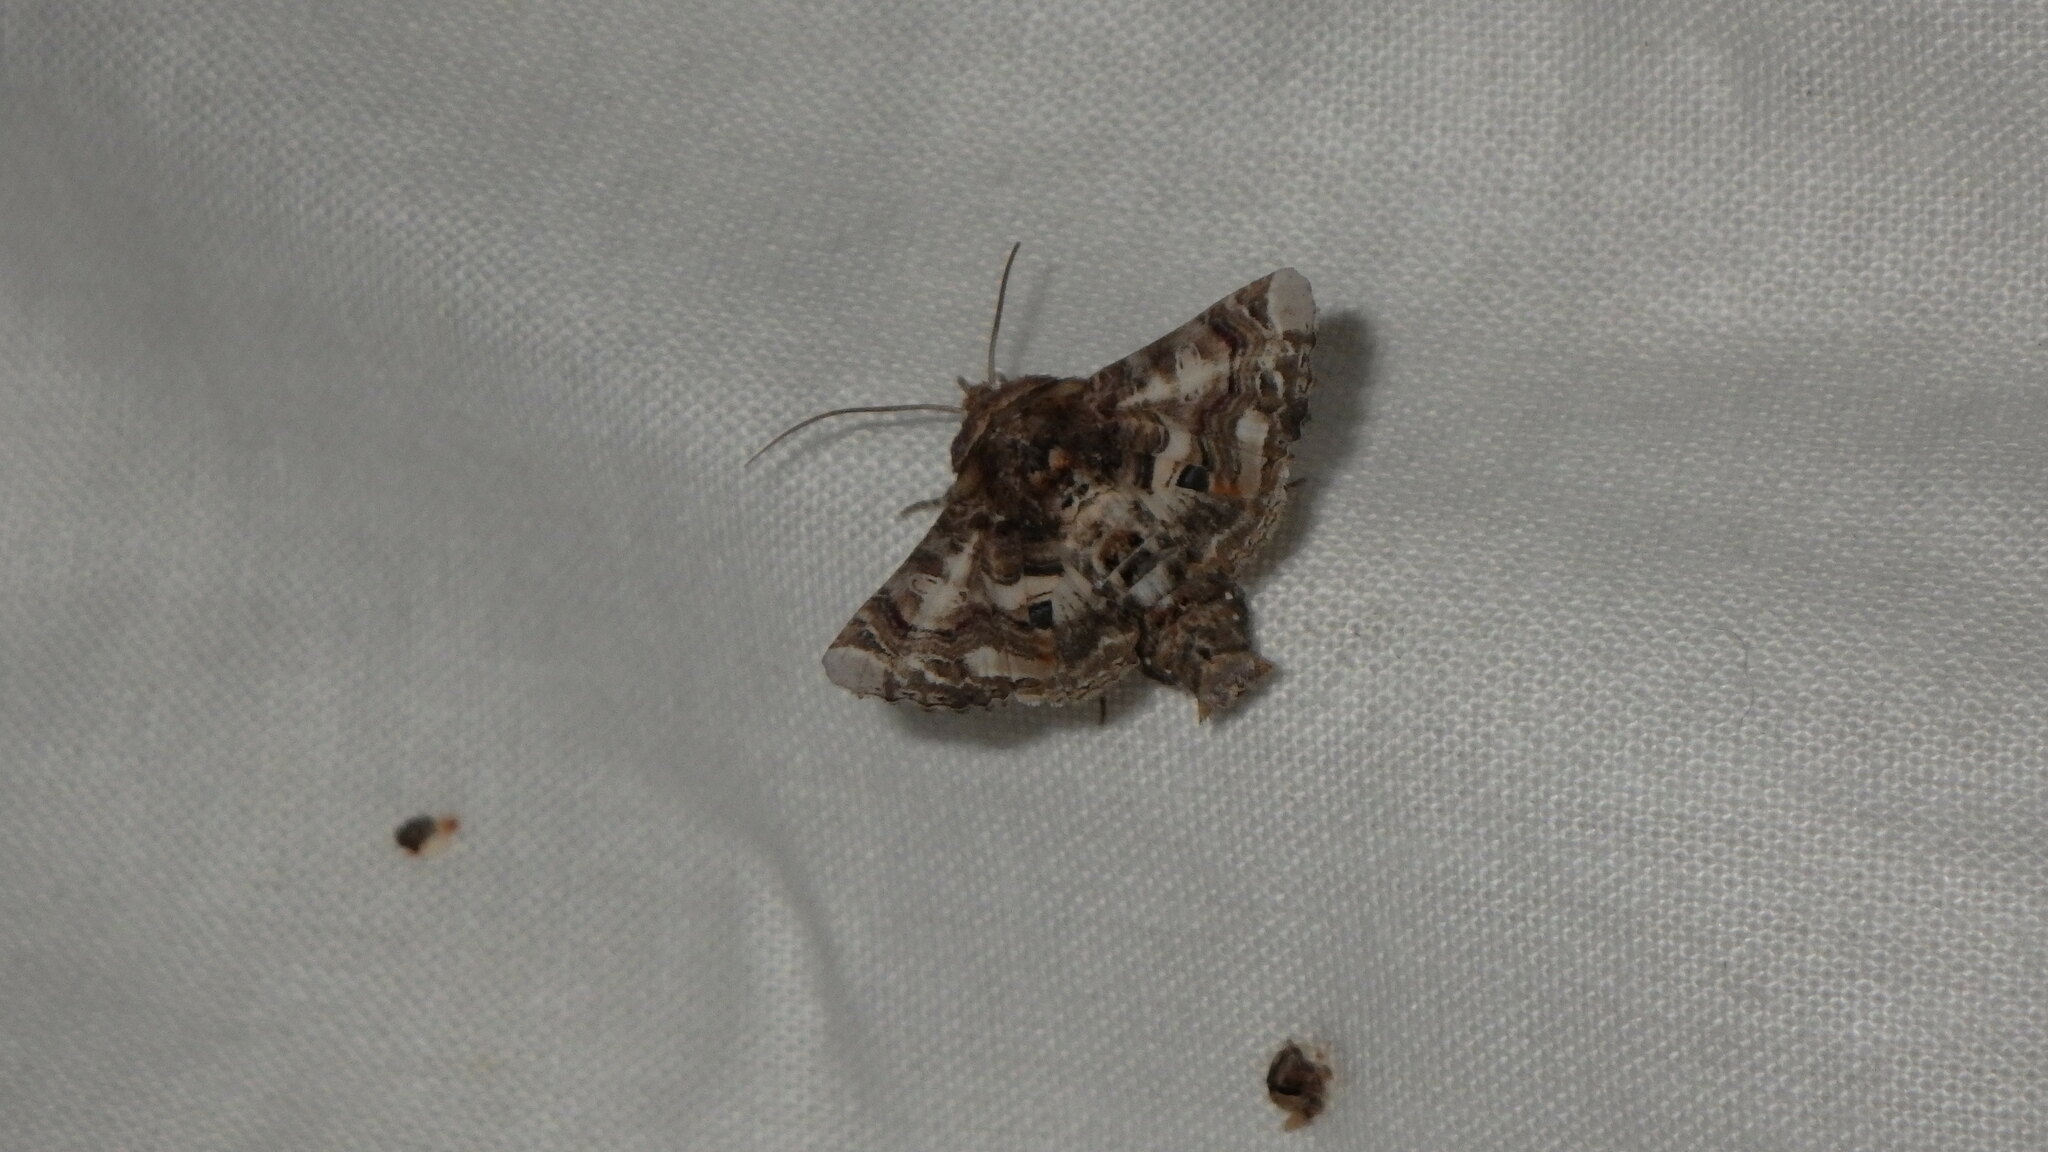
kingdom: Animalia
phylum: Arthropoda
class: Insecta
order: Lepidoptera
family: Euteliidae
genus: Eutelia
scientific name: Eutelia adulatrix
